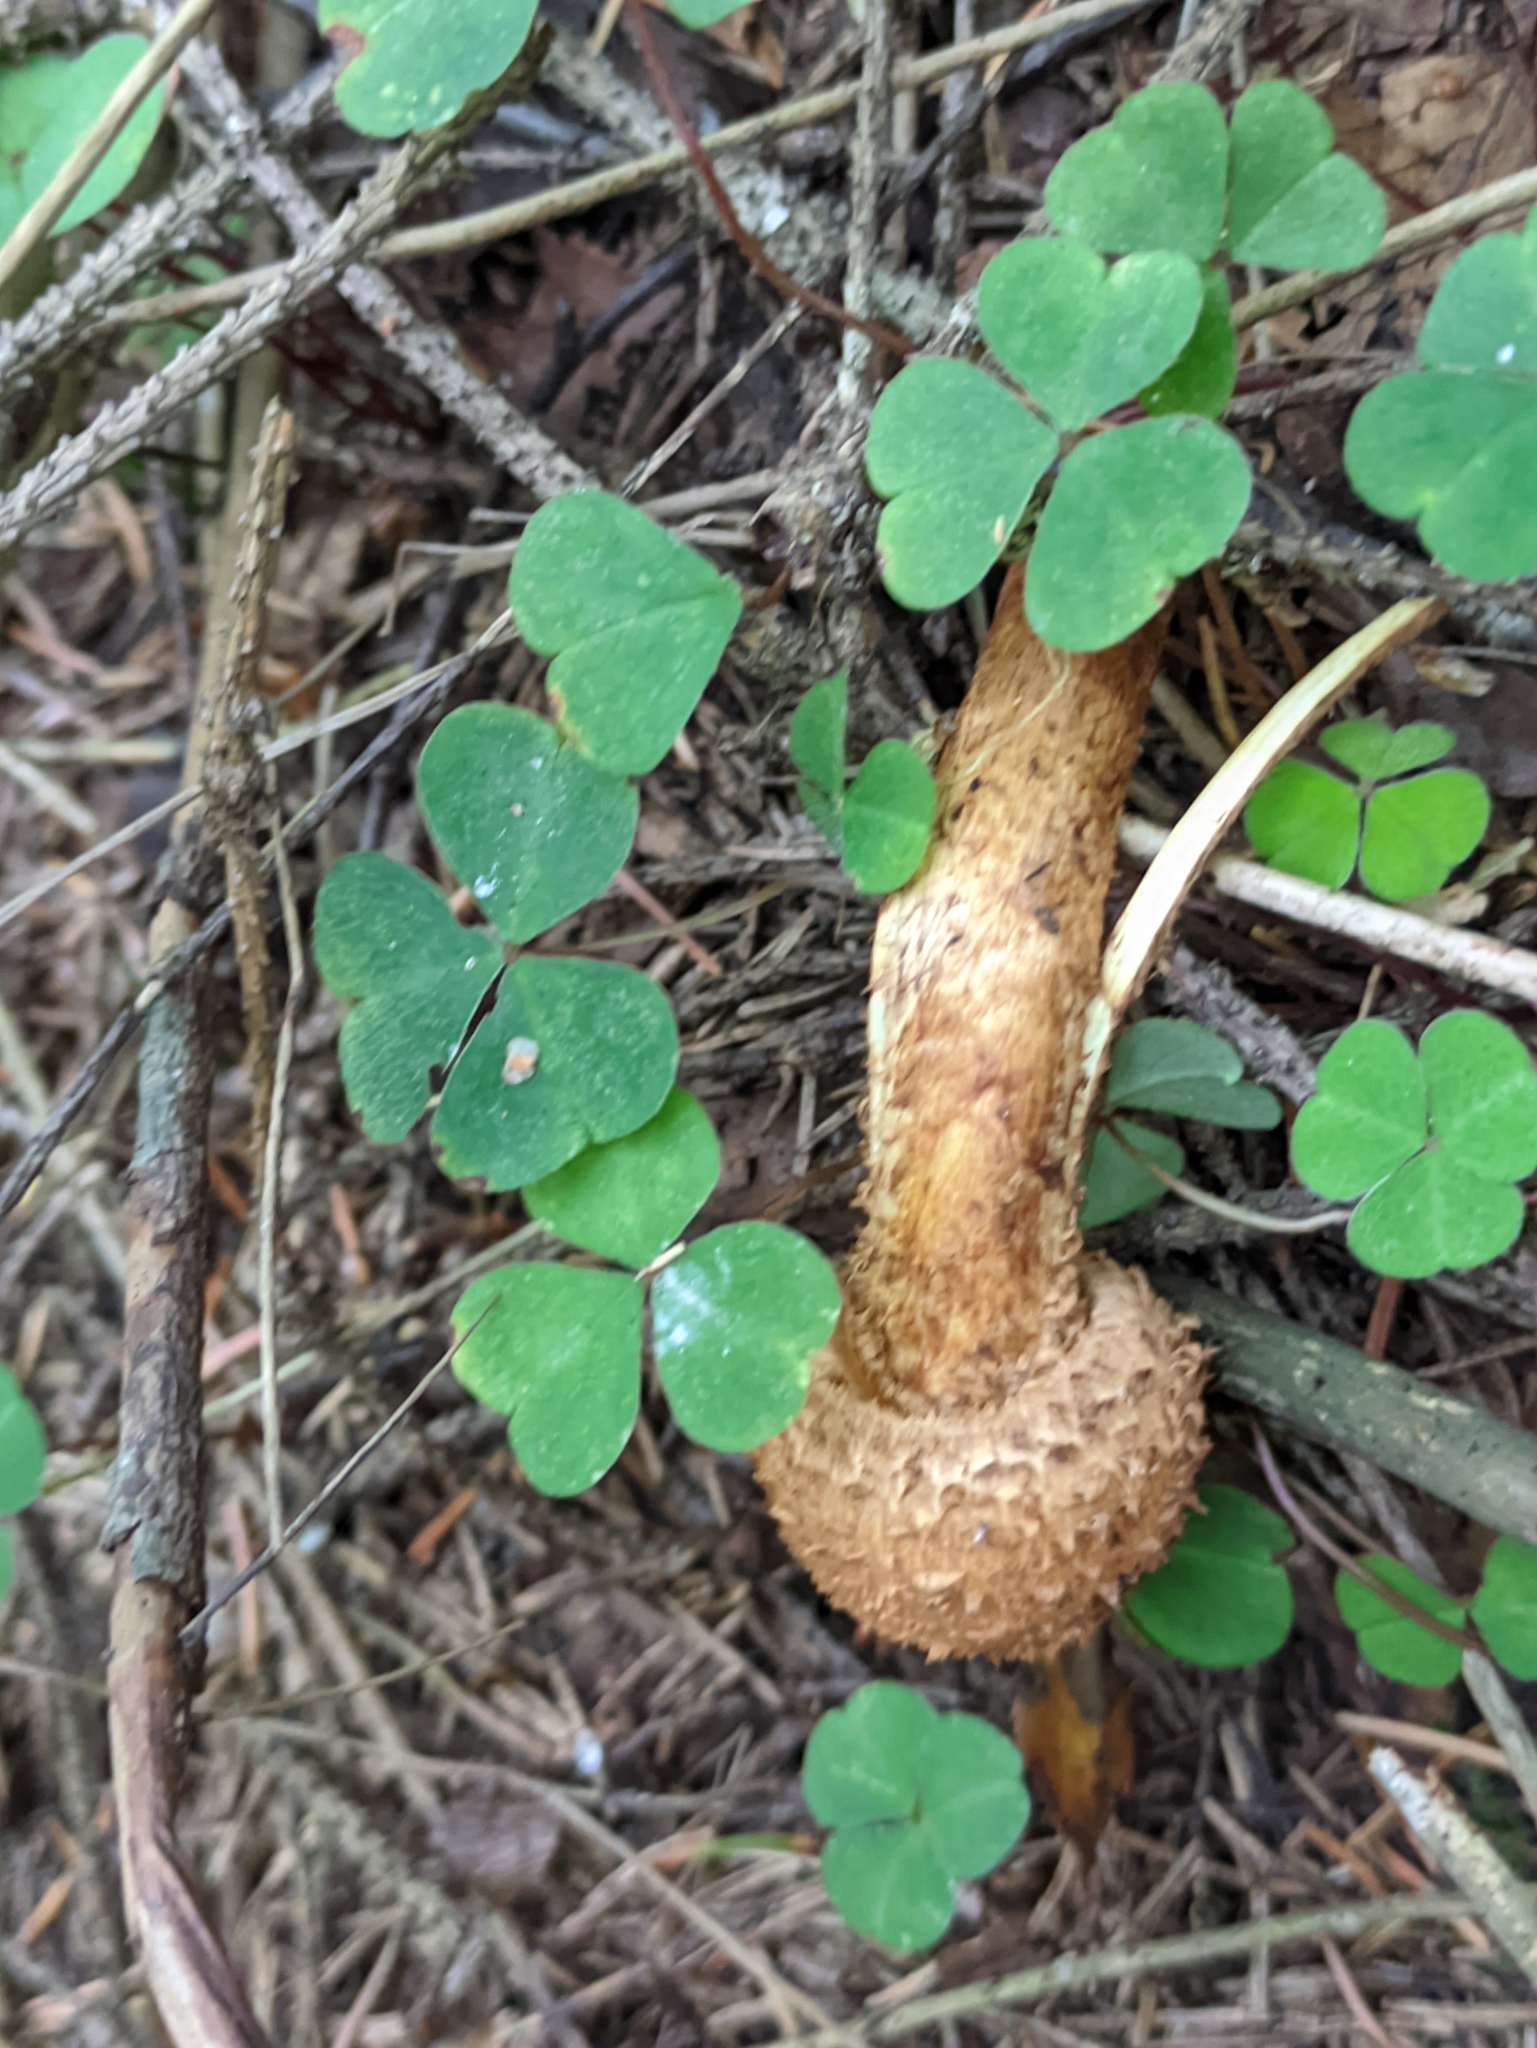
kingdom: Fungi
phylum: Basidiomycota
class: Agaricomycetes
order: Agaricales
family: Strophariaceae
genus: Pholiota
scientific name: Pholiota squarrosa
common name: Shaggy pholiota
